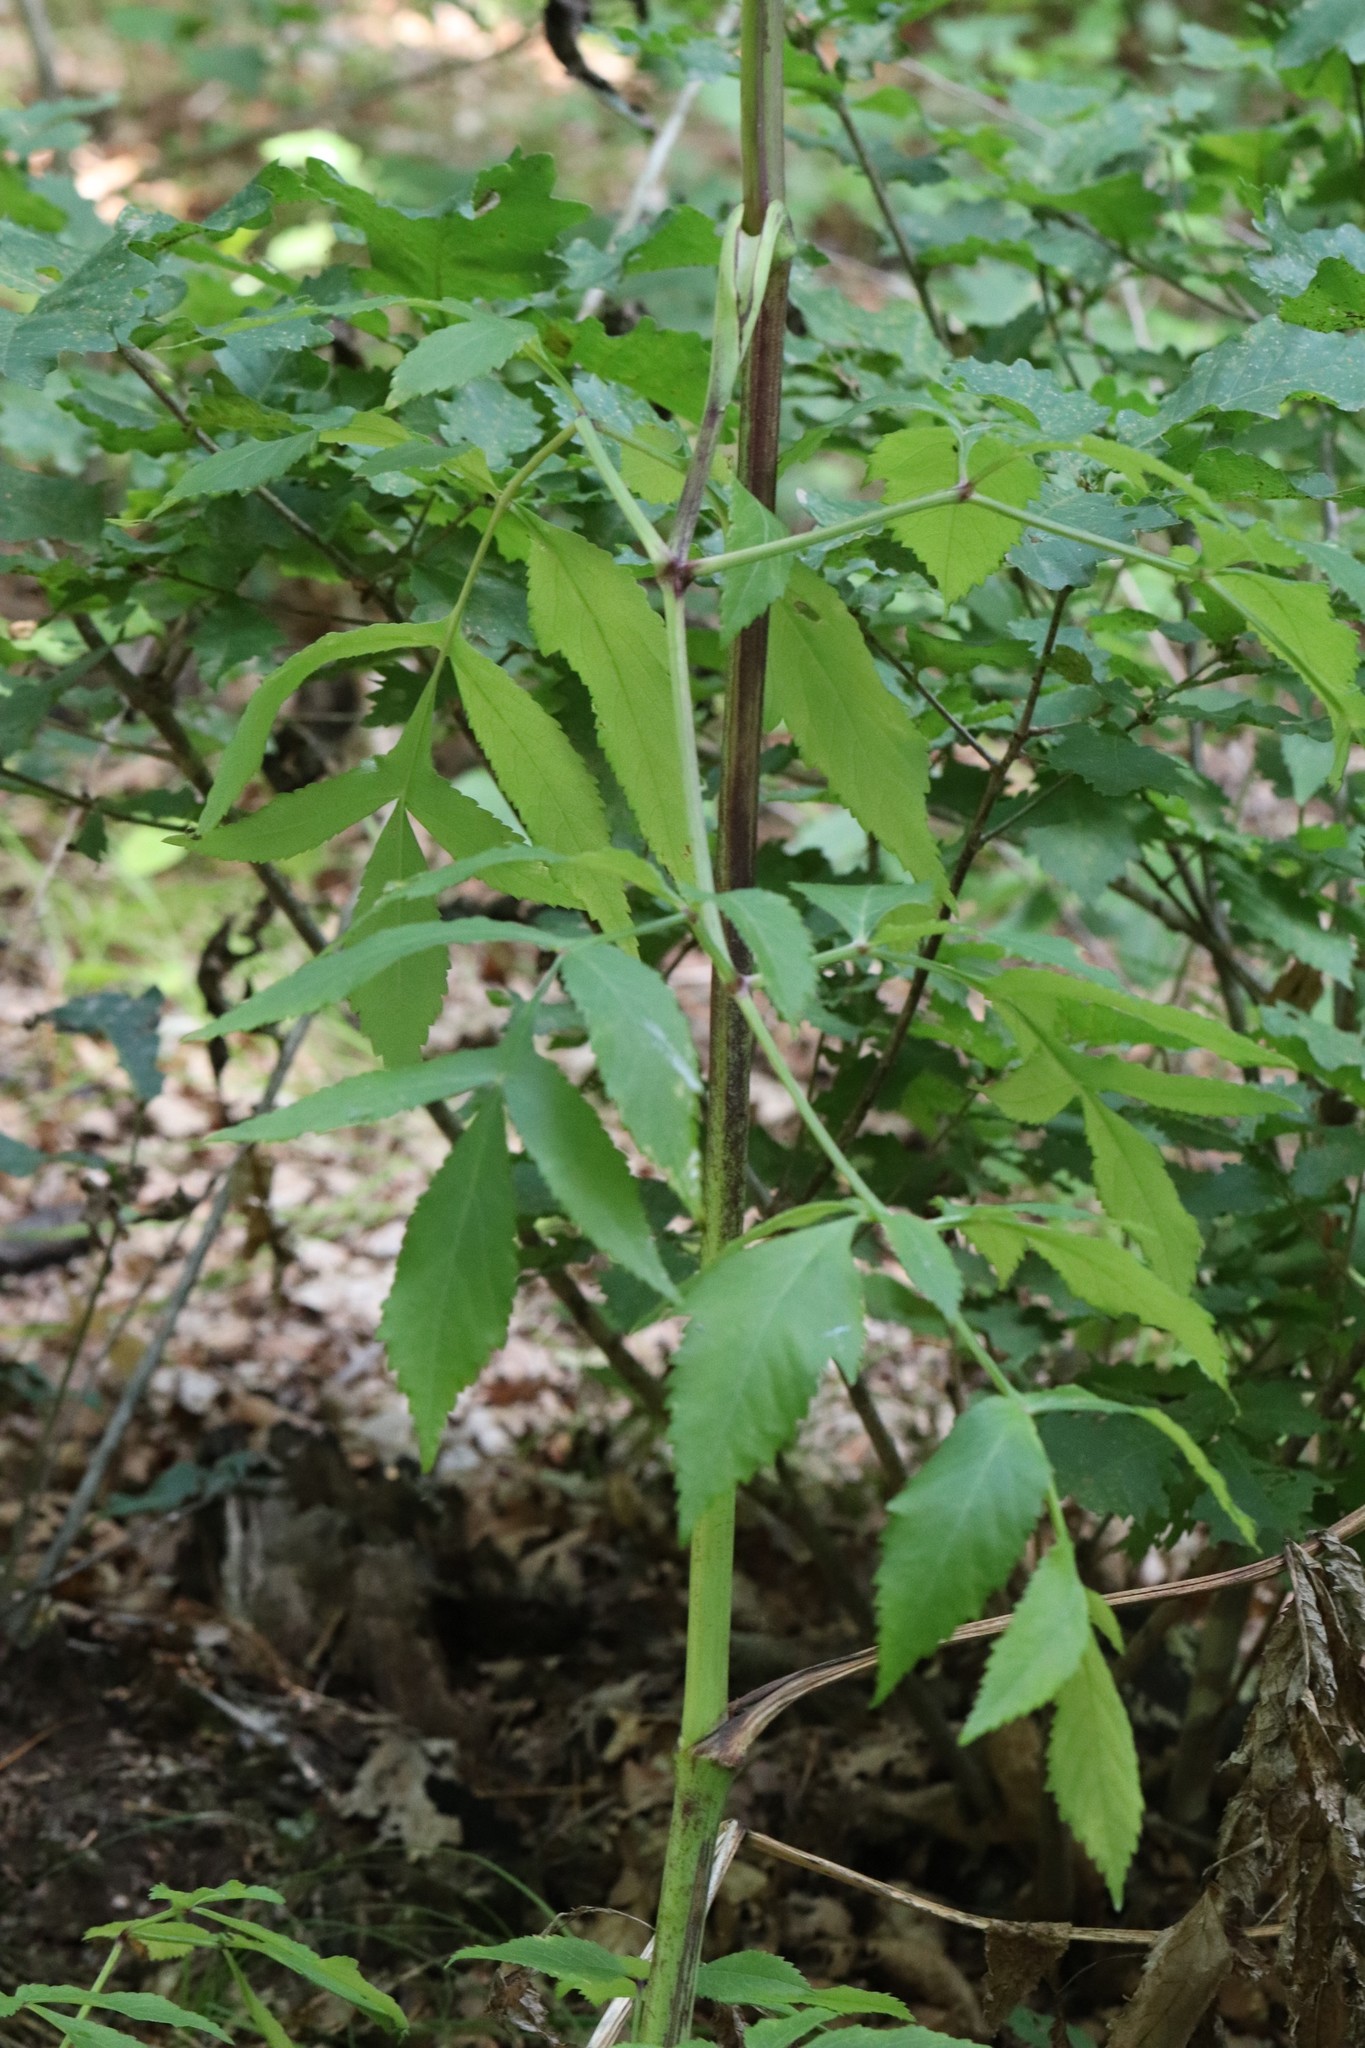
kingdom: Plantae
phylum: Tracheophyta
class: Magnoliopsida
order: Apiales
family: Apiaceae
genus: Angelica
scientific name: Angelica czernaevia
